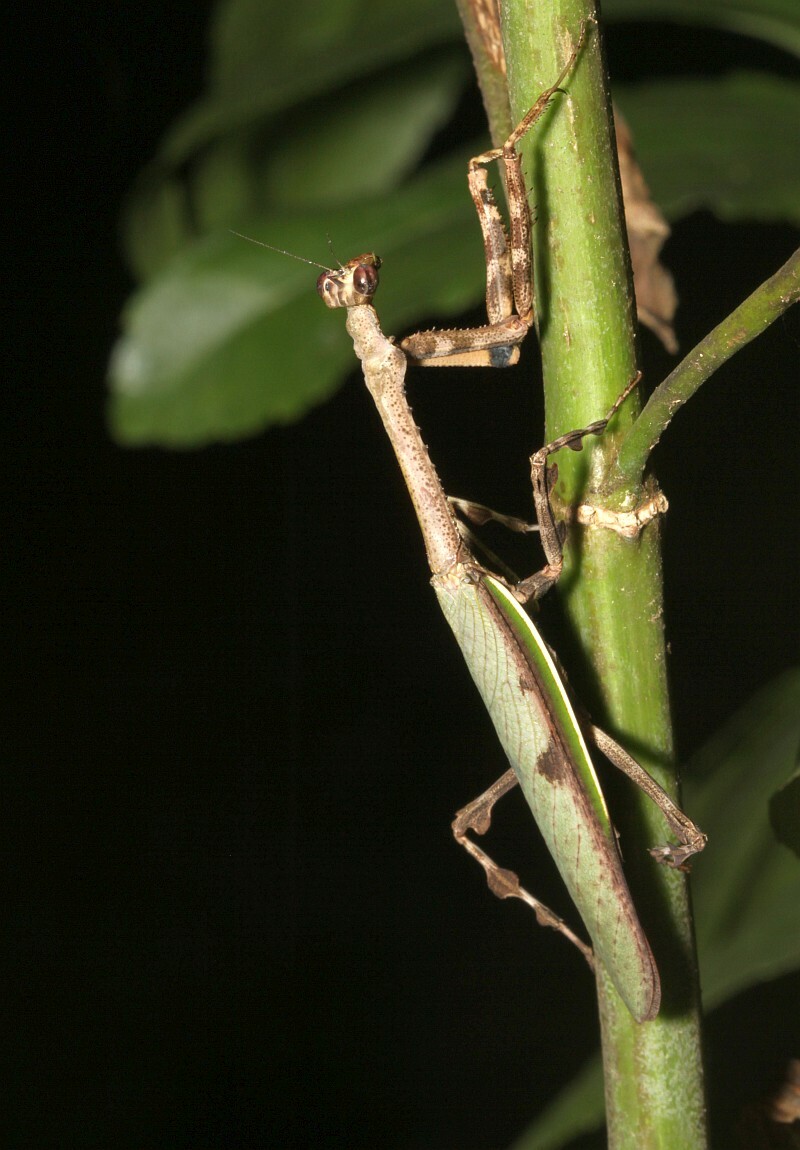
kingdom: Animalia
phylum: Arthropoda
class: Insecta
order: Mantodea
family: Mantidae
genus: Vates
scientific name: Vates biplagiata
